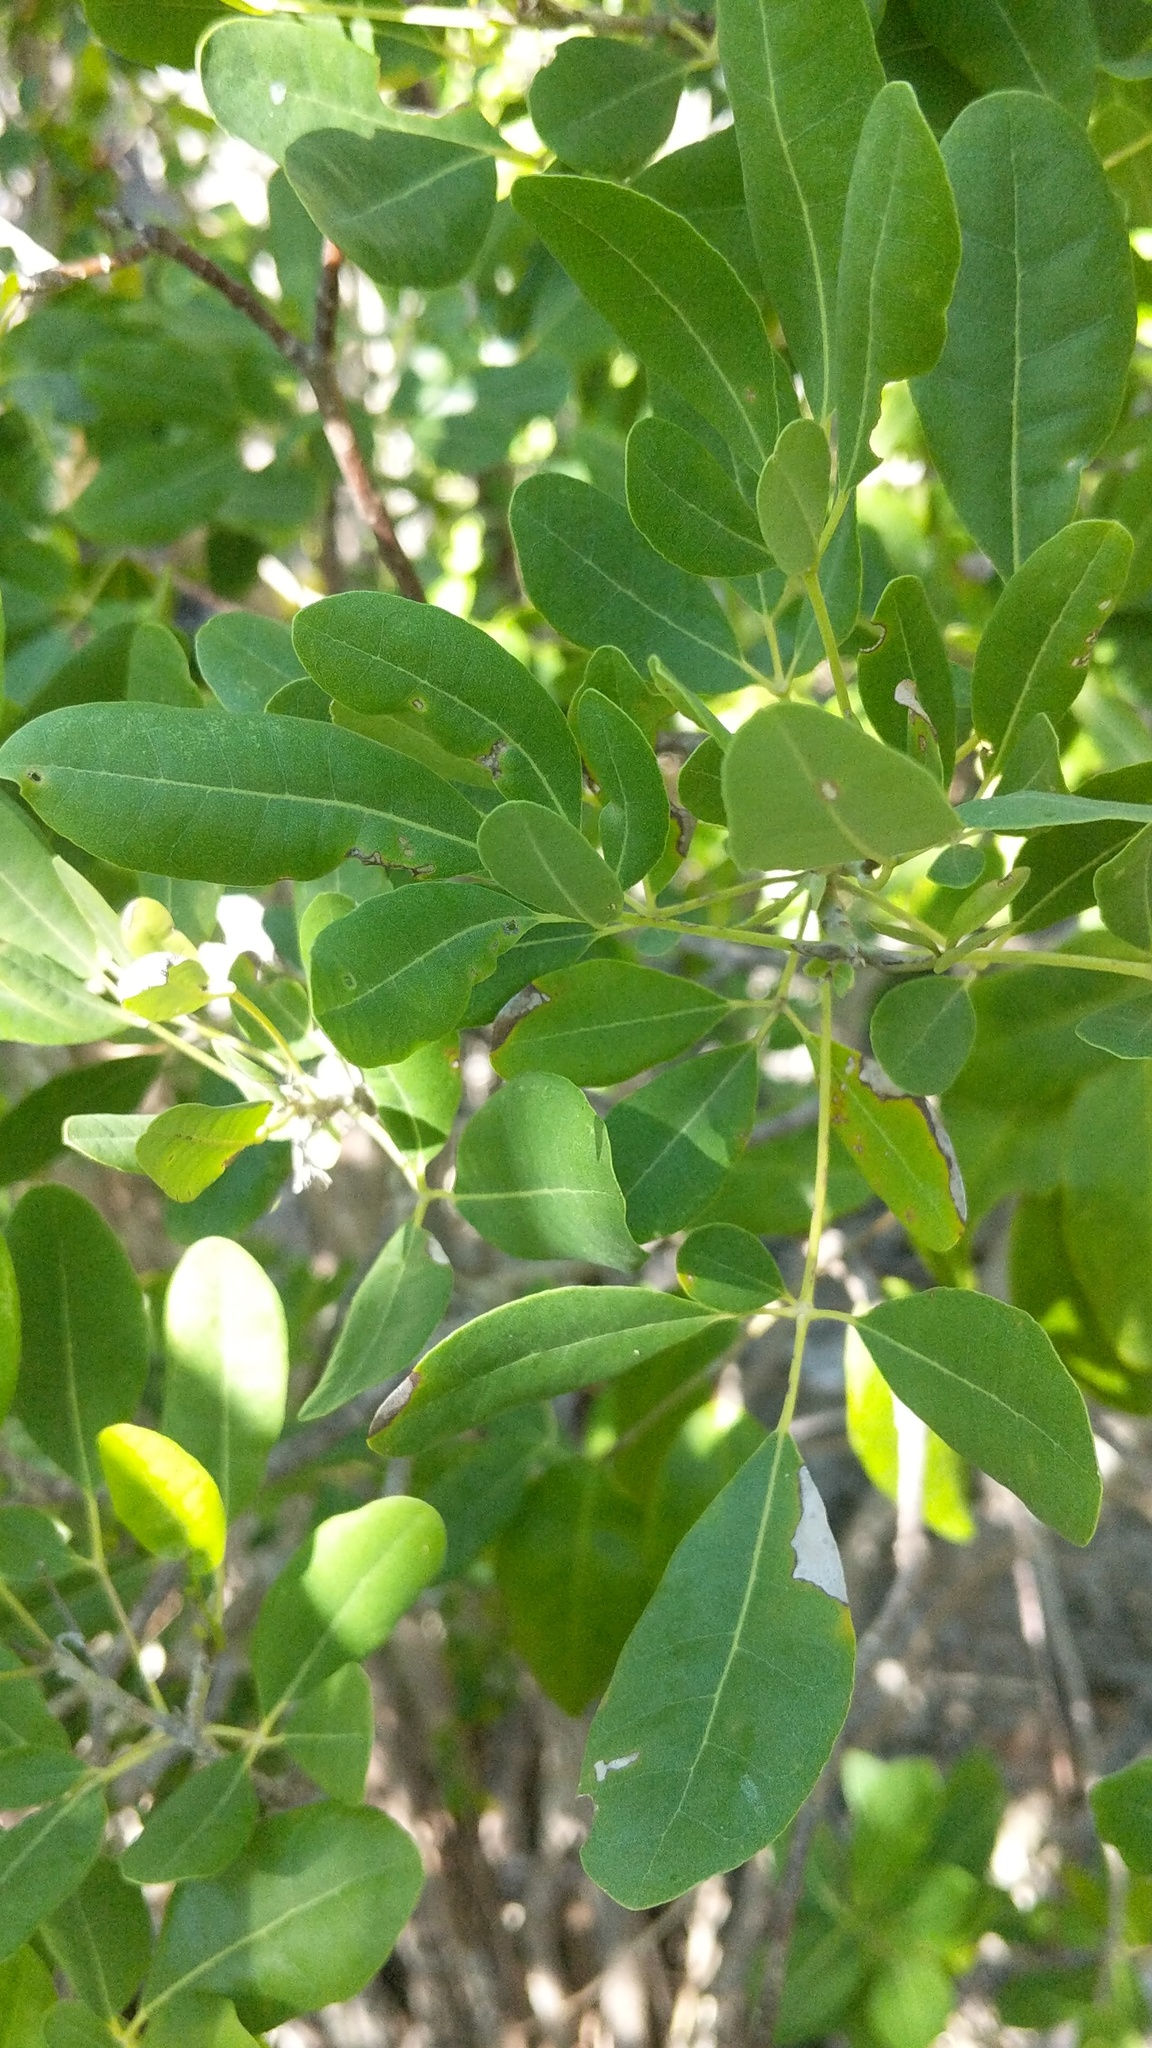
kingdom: Plantae
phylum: Tracheophyta
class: Magnoliopsida
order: Lamiales
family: Bignoniaceae
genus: Tabebuia
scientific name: Tabebuia heterophylla
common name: White cedar
